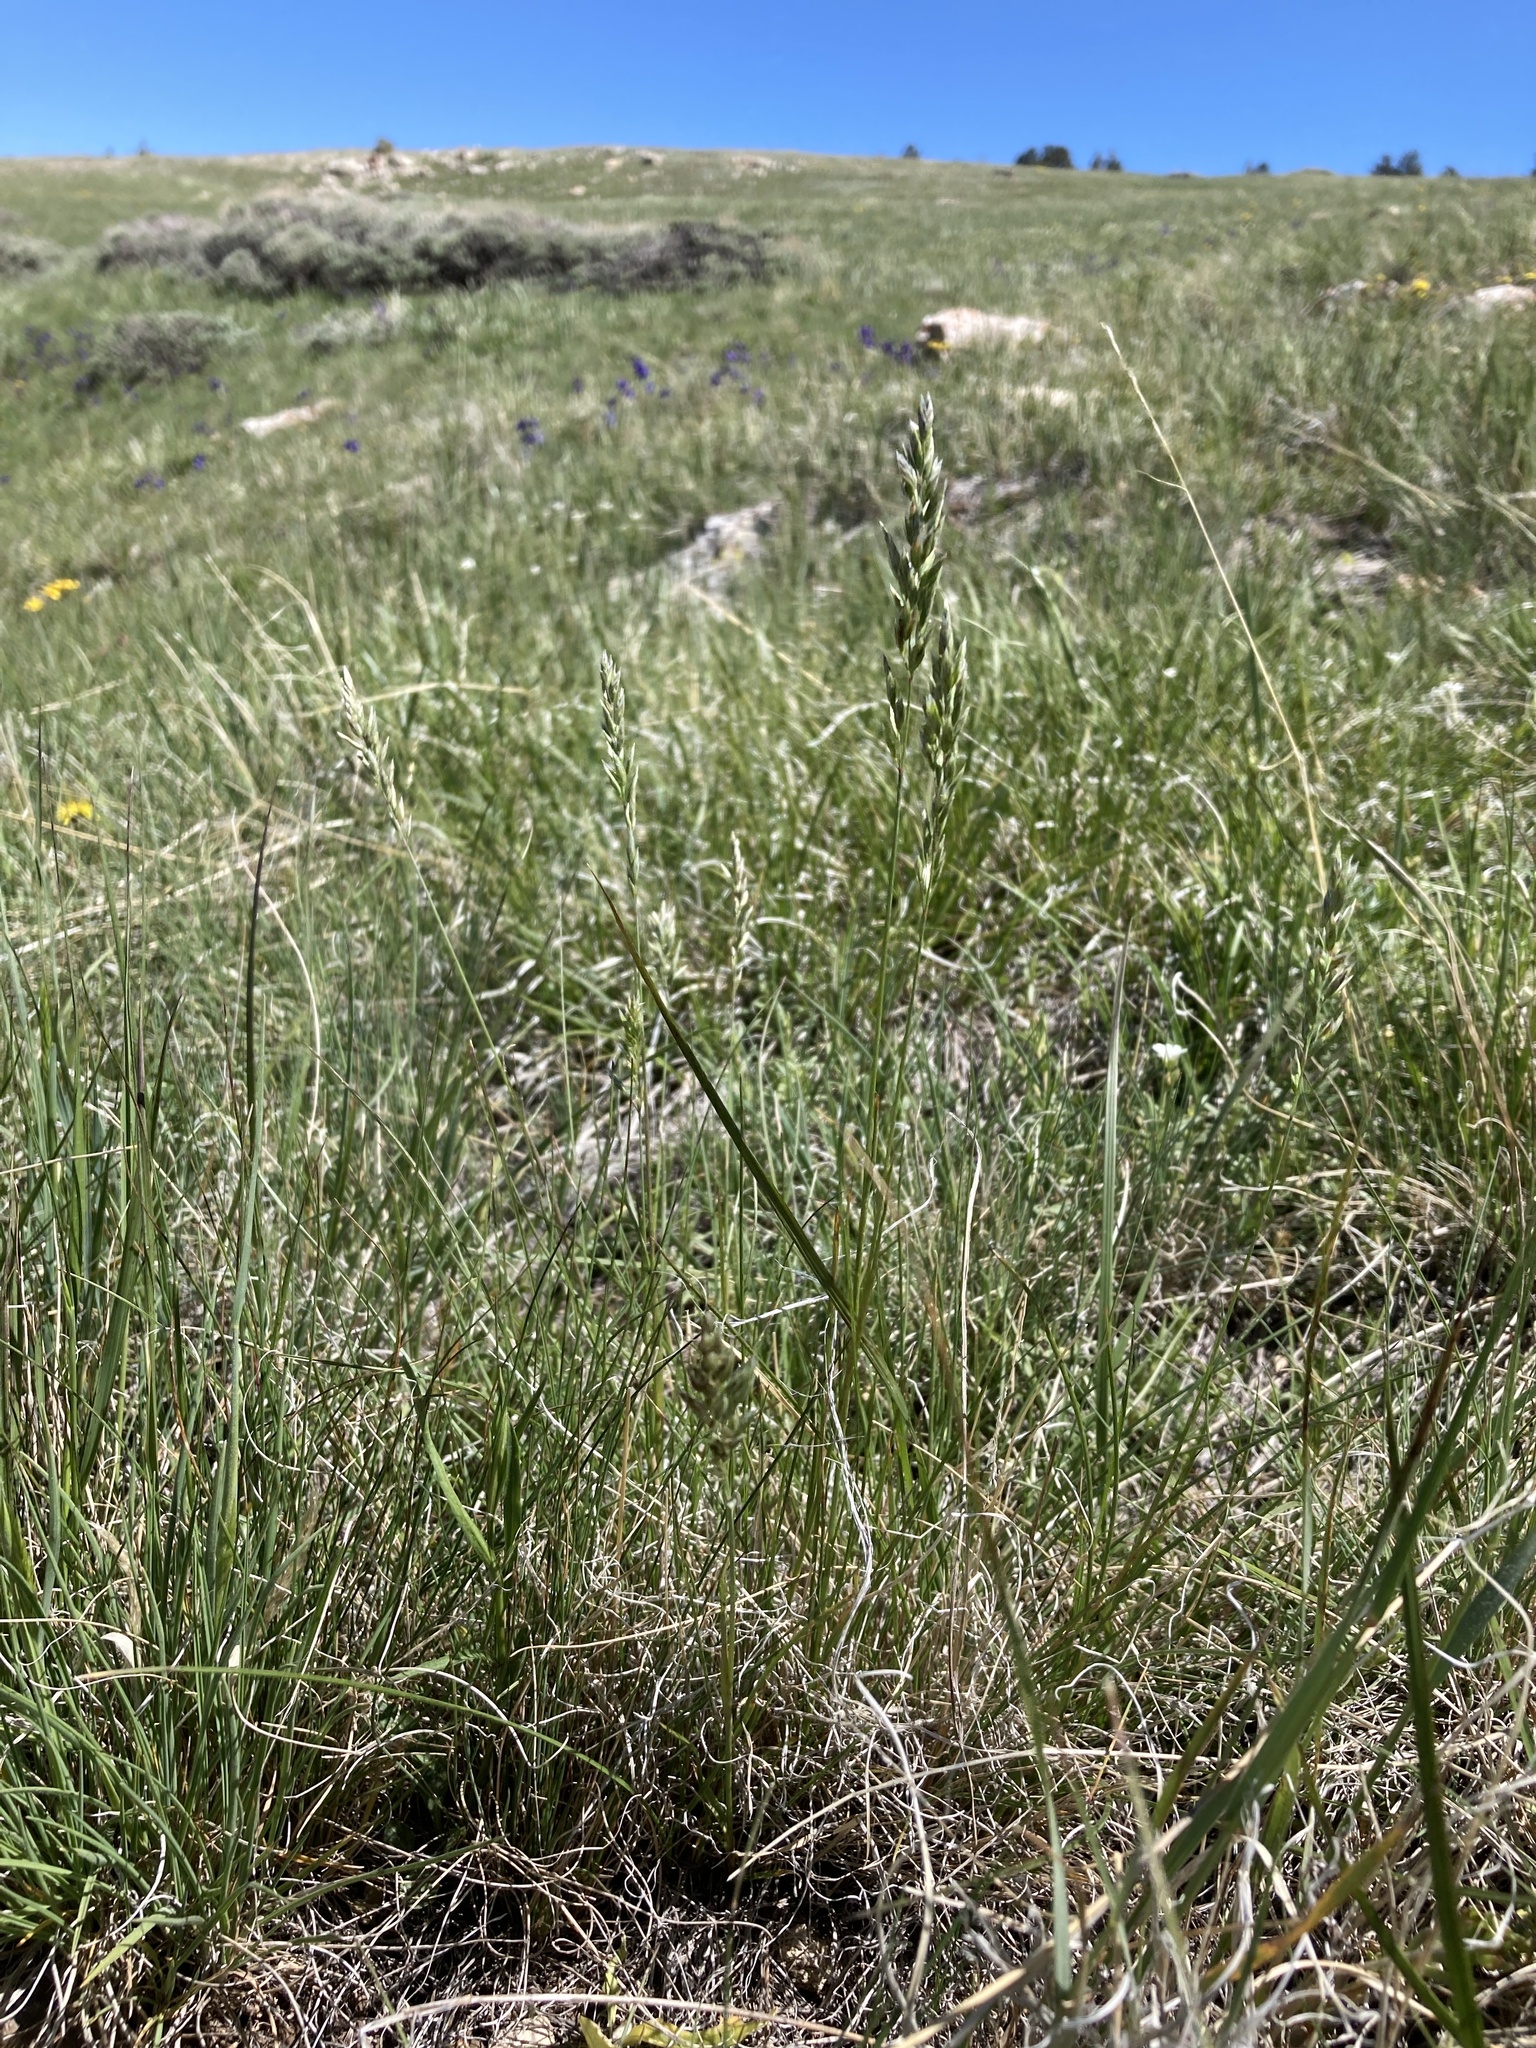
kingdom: Plantae
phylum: Tracheophyta
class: Liliopsida
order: Poales
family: Poaceae
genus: Poa
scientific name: Poa cusickii
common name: Cusick's bluegrass
